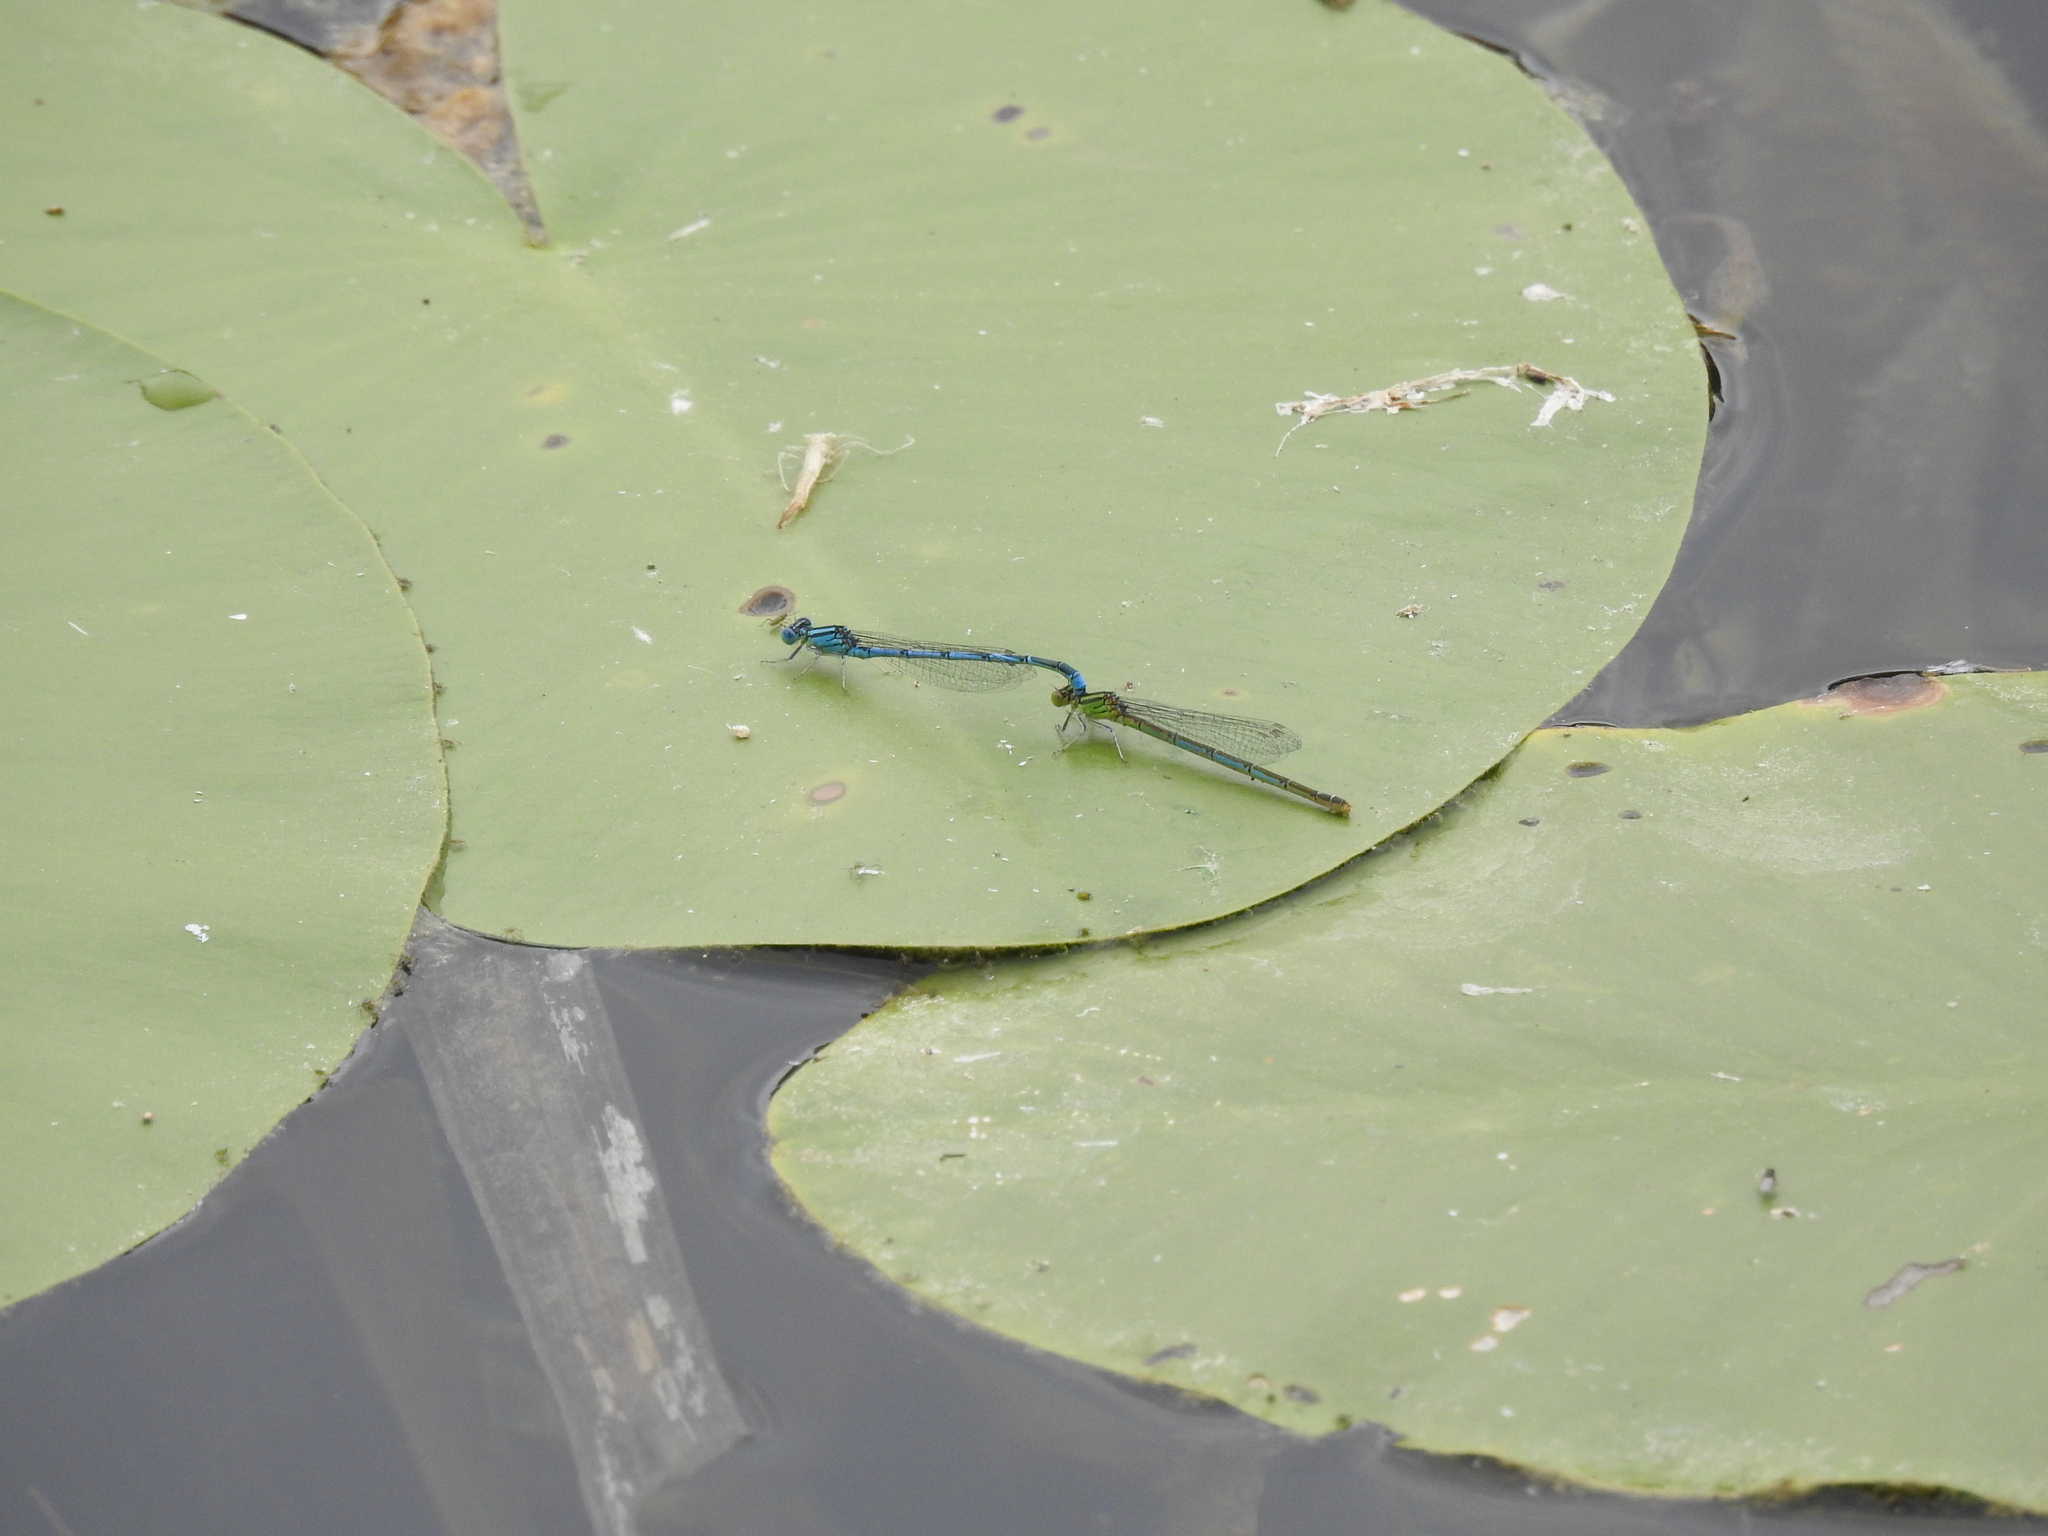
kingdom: Animalia
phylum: Arthropoda
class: Insecta
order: Odonata
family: Coenagrionidae
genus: Erythromma
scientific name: Erythromma lindenii
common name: Blue-eye
